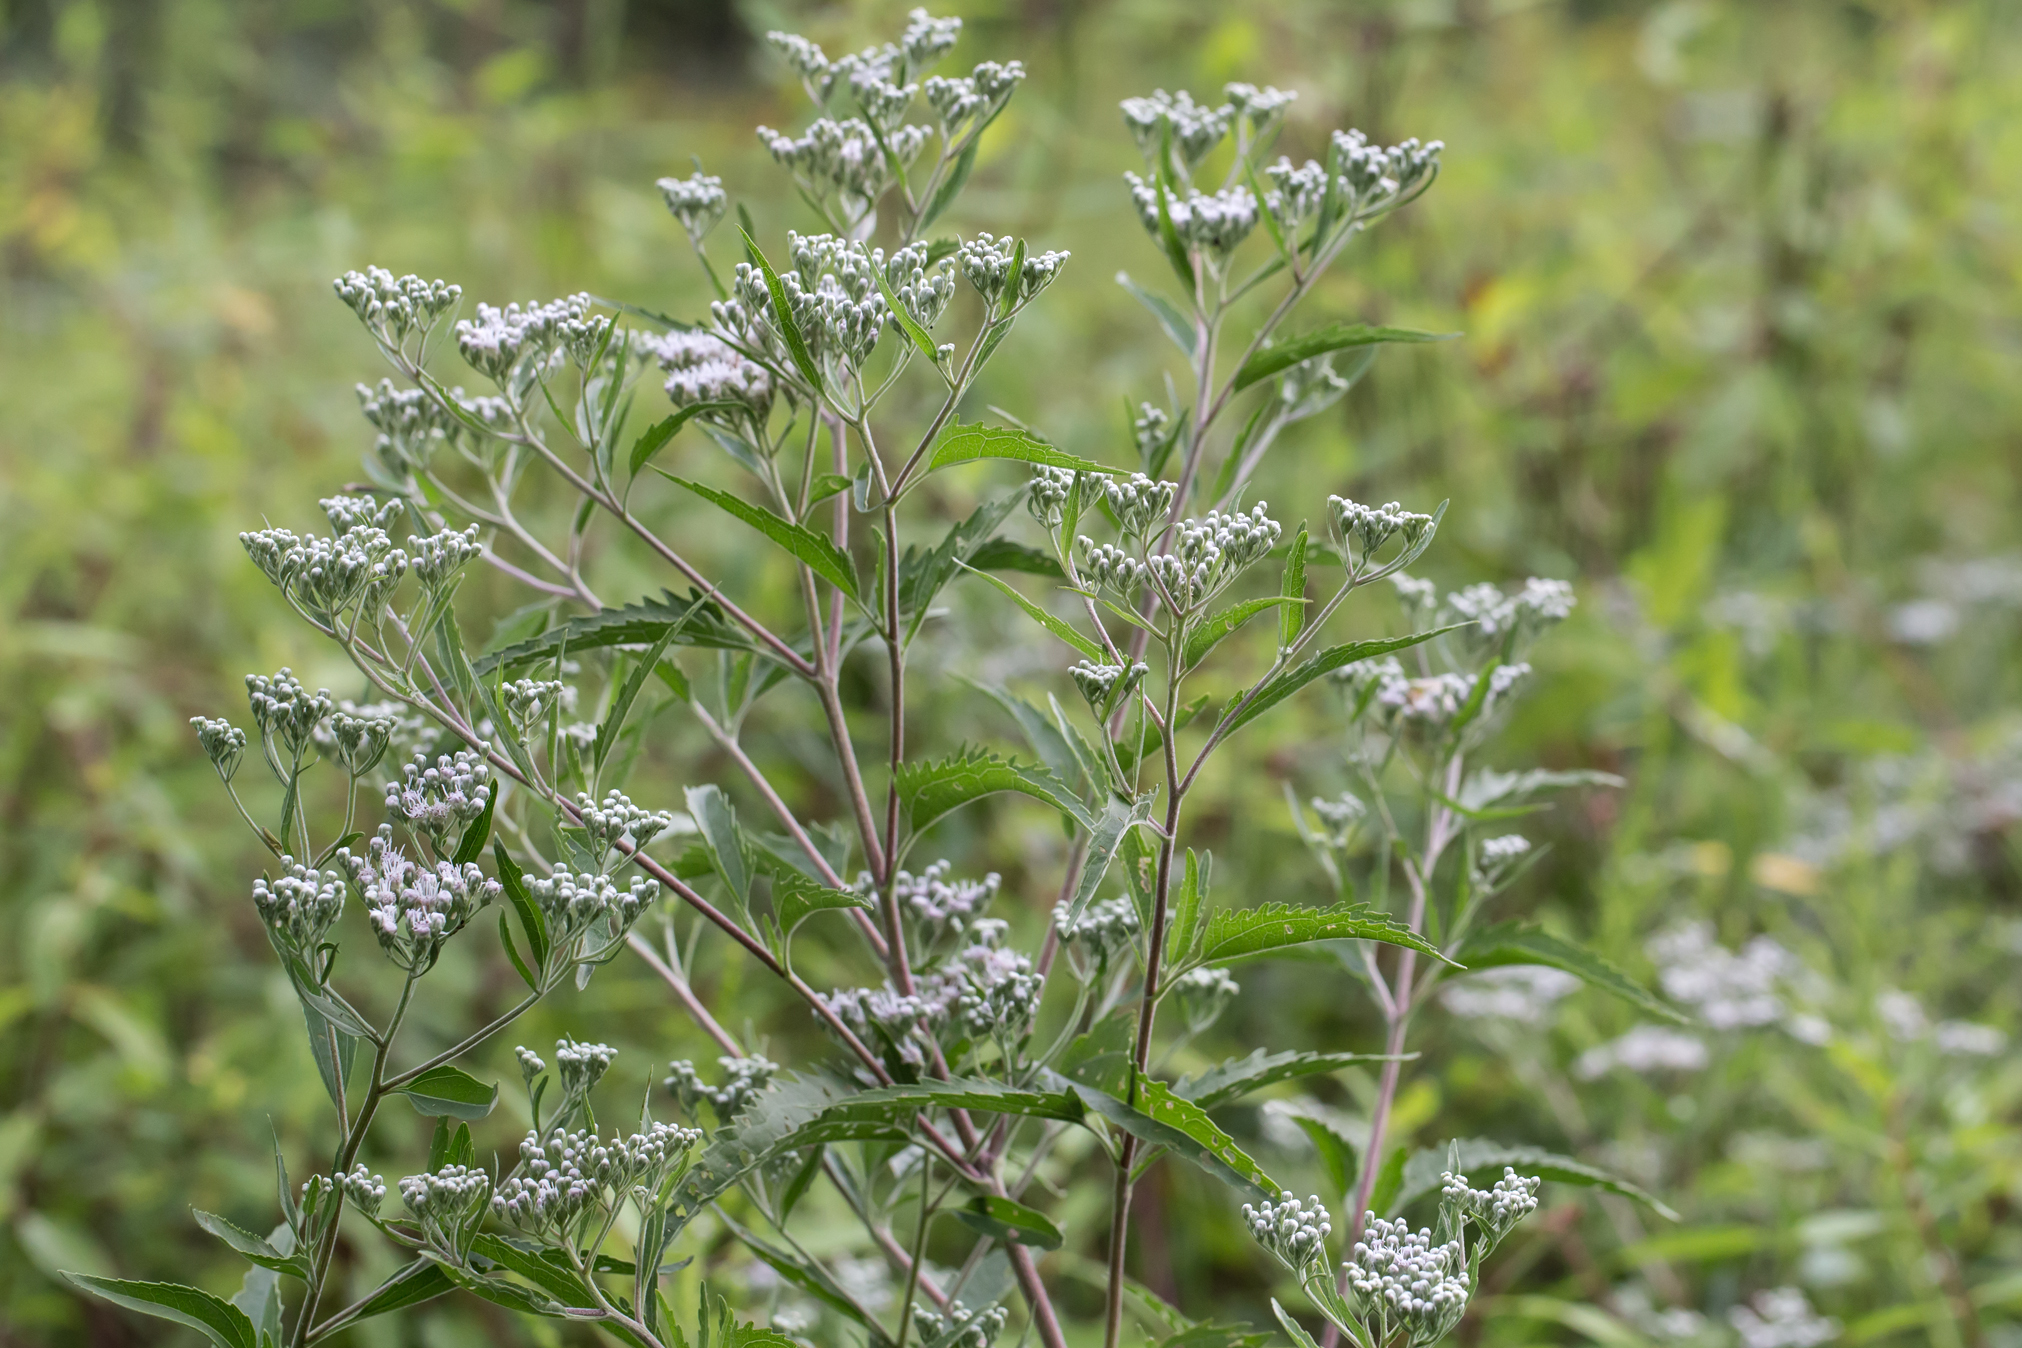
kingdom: Plantae
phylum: Tracheophyta
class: Magnoliopsida
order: Asterales
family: Asteraceae
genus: Eupatorium
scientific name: Eupatorium serotinum
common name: Late boneset
